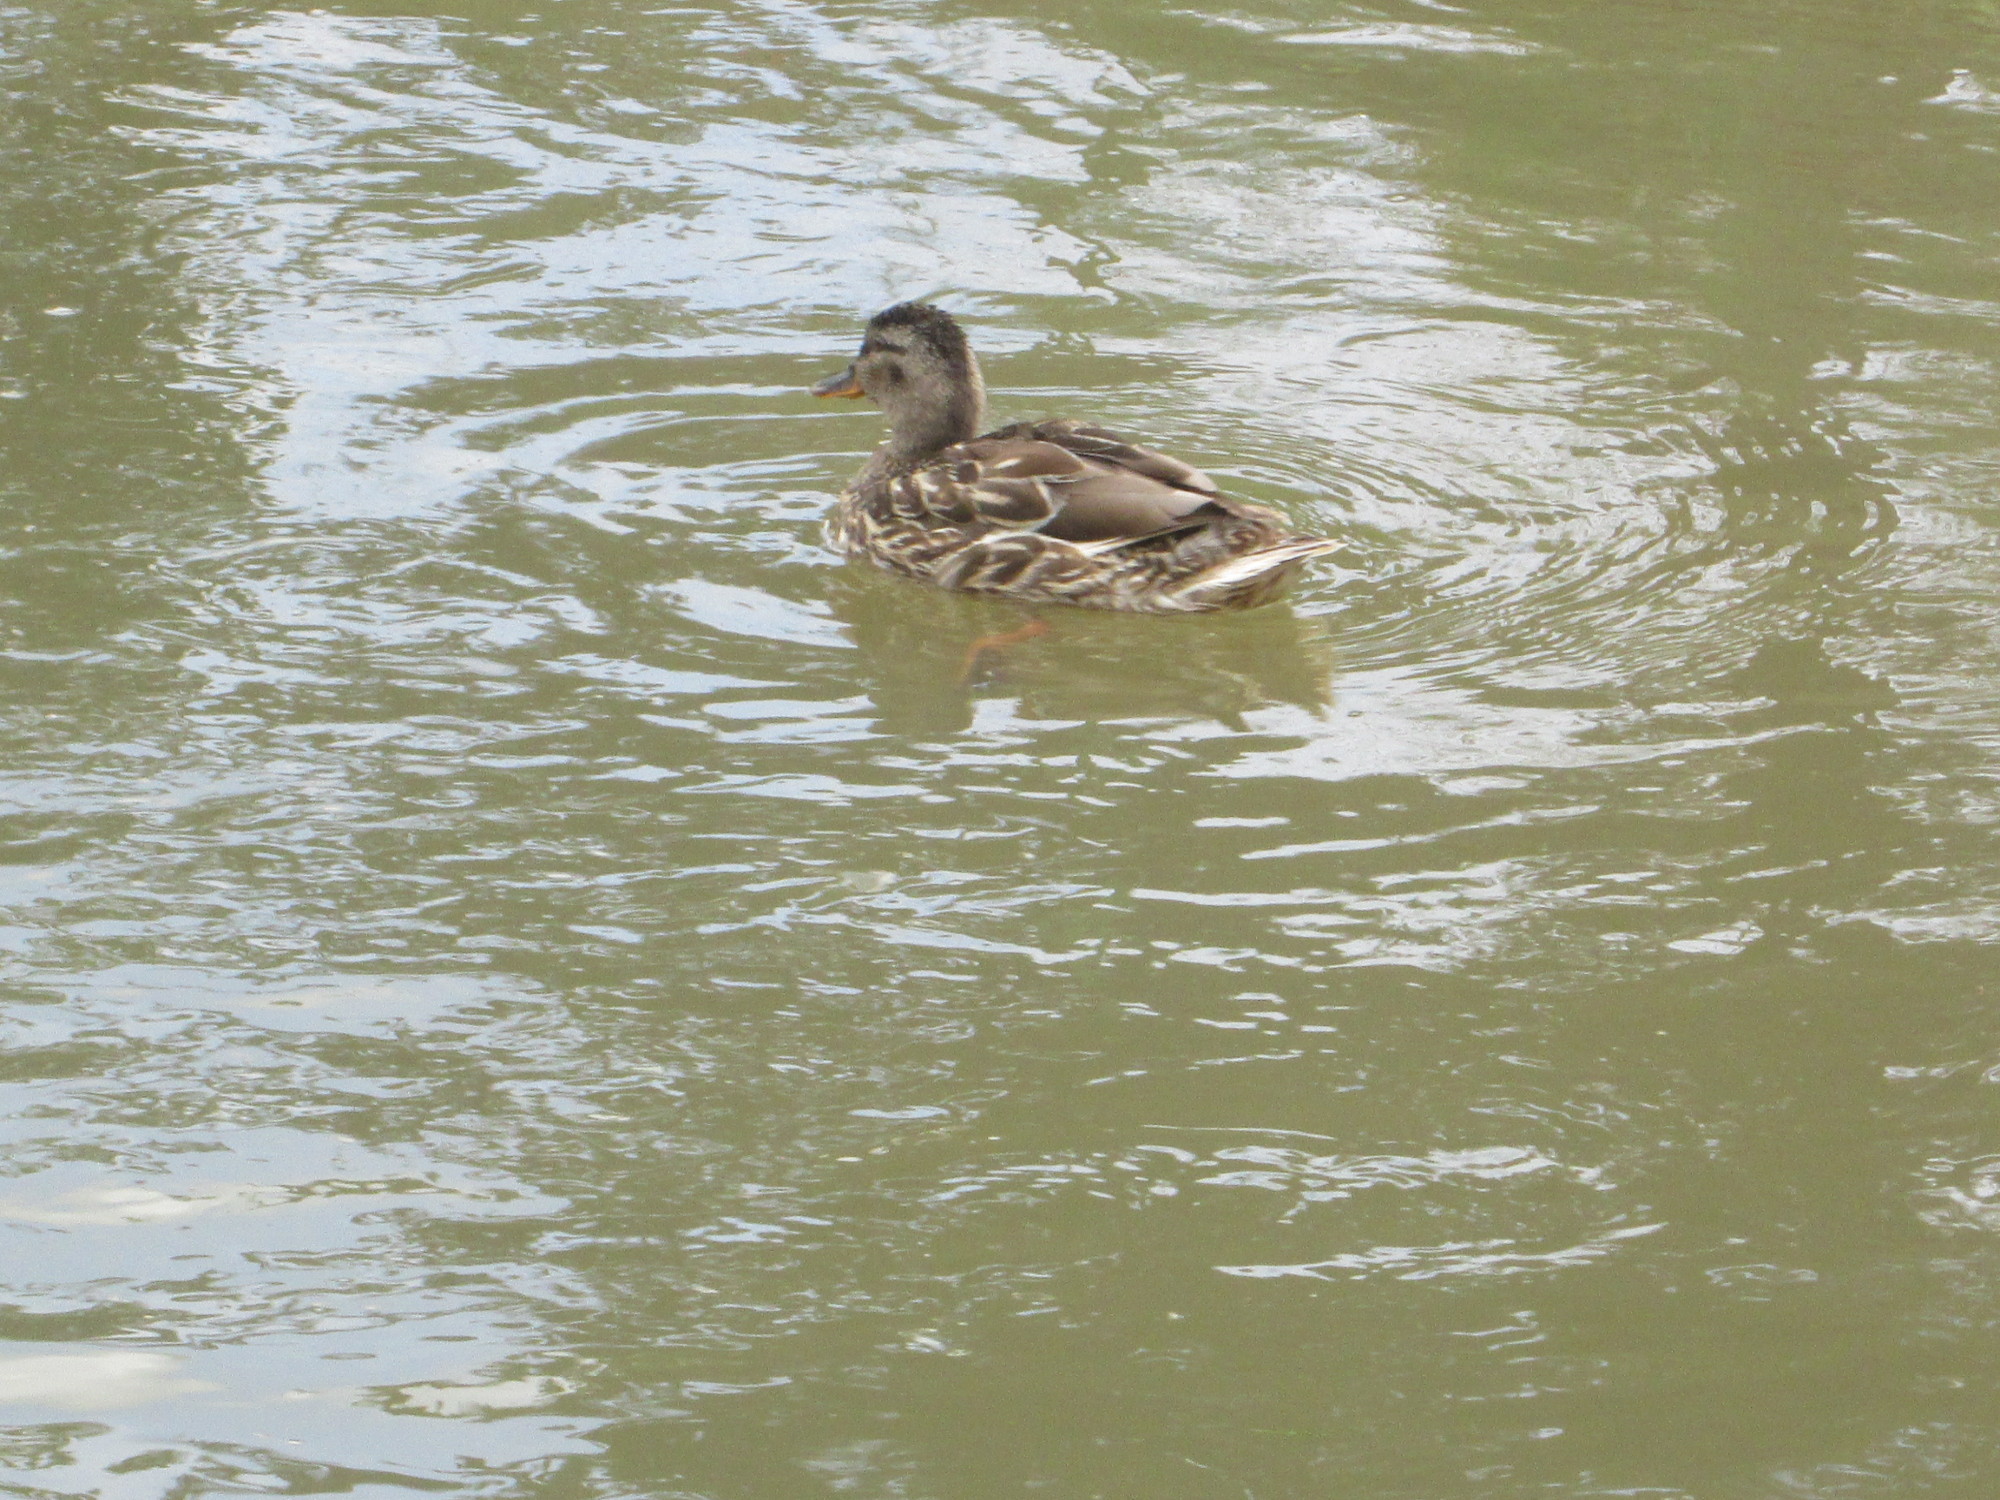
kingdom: Animalia
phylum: Chordata
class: Aves
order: Anseriformes
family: Anatidae
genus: Anas
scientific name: Anas platyrhynchos
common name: Mallard
